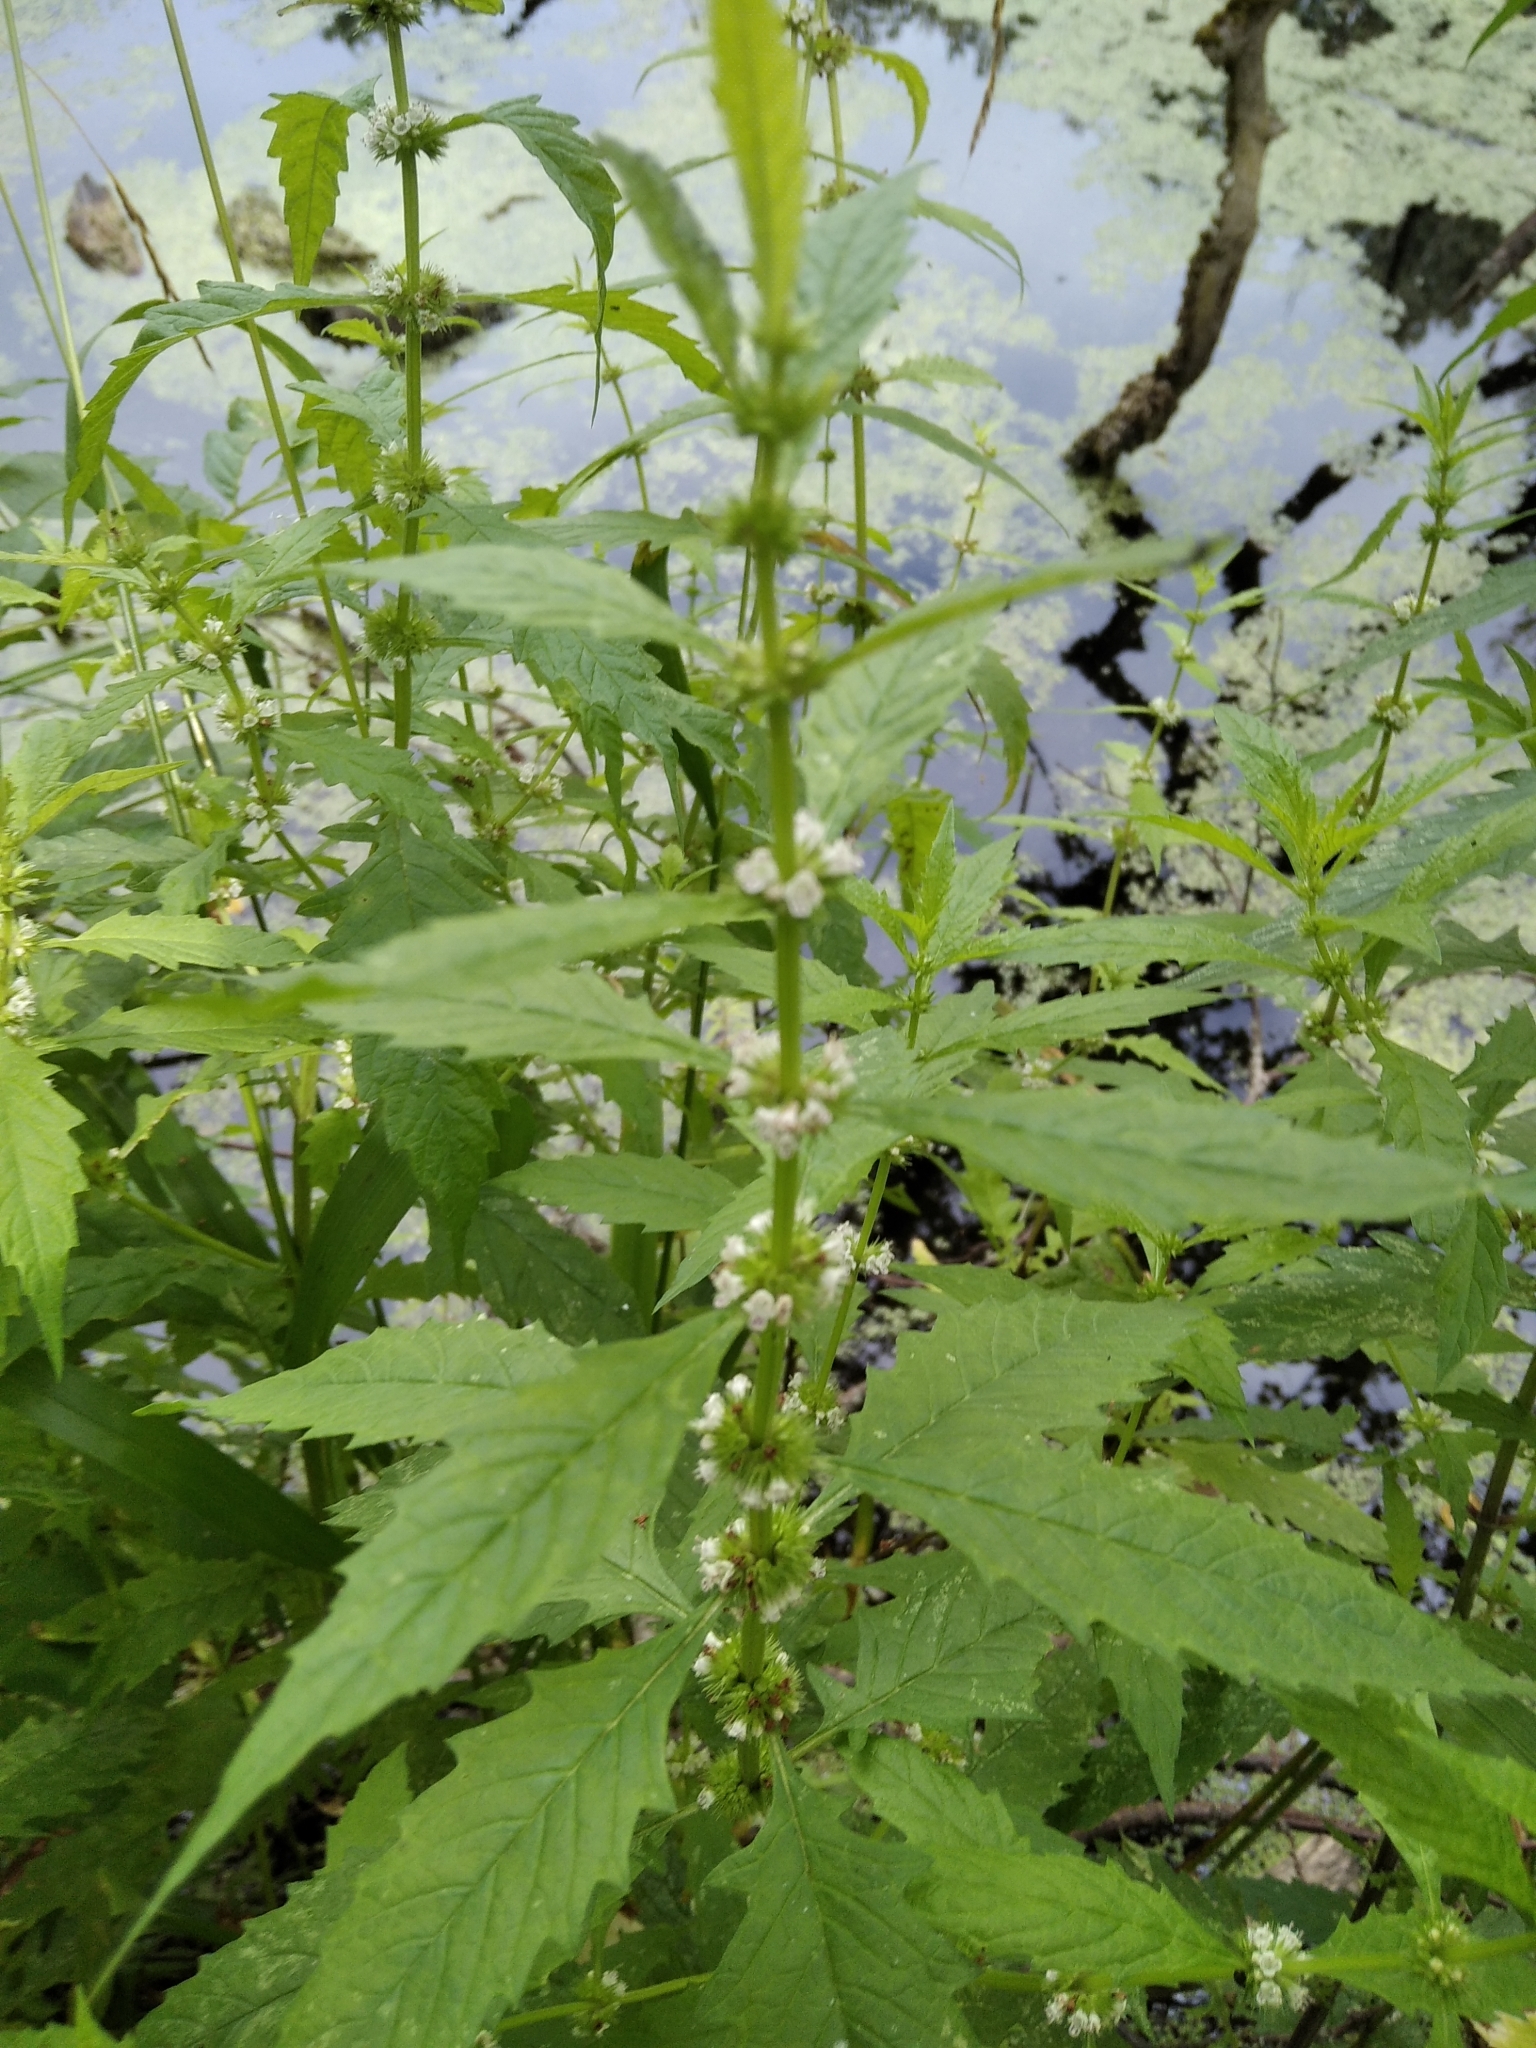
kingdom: Plantae
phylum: Tracheophyta
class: Magnoliopsida
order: Lamiales
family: Lamiaceae
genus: Lycopus
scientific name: Lycopus europaeus
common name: European bugleweed
